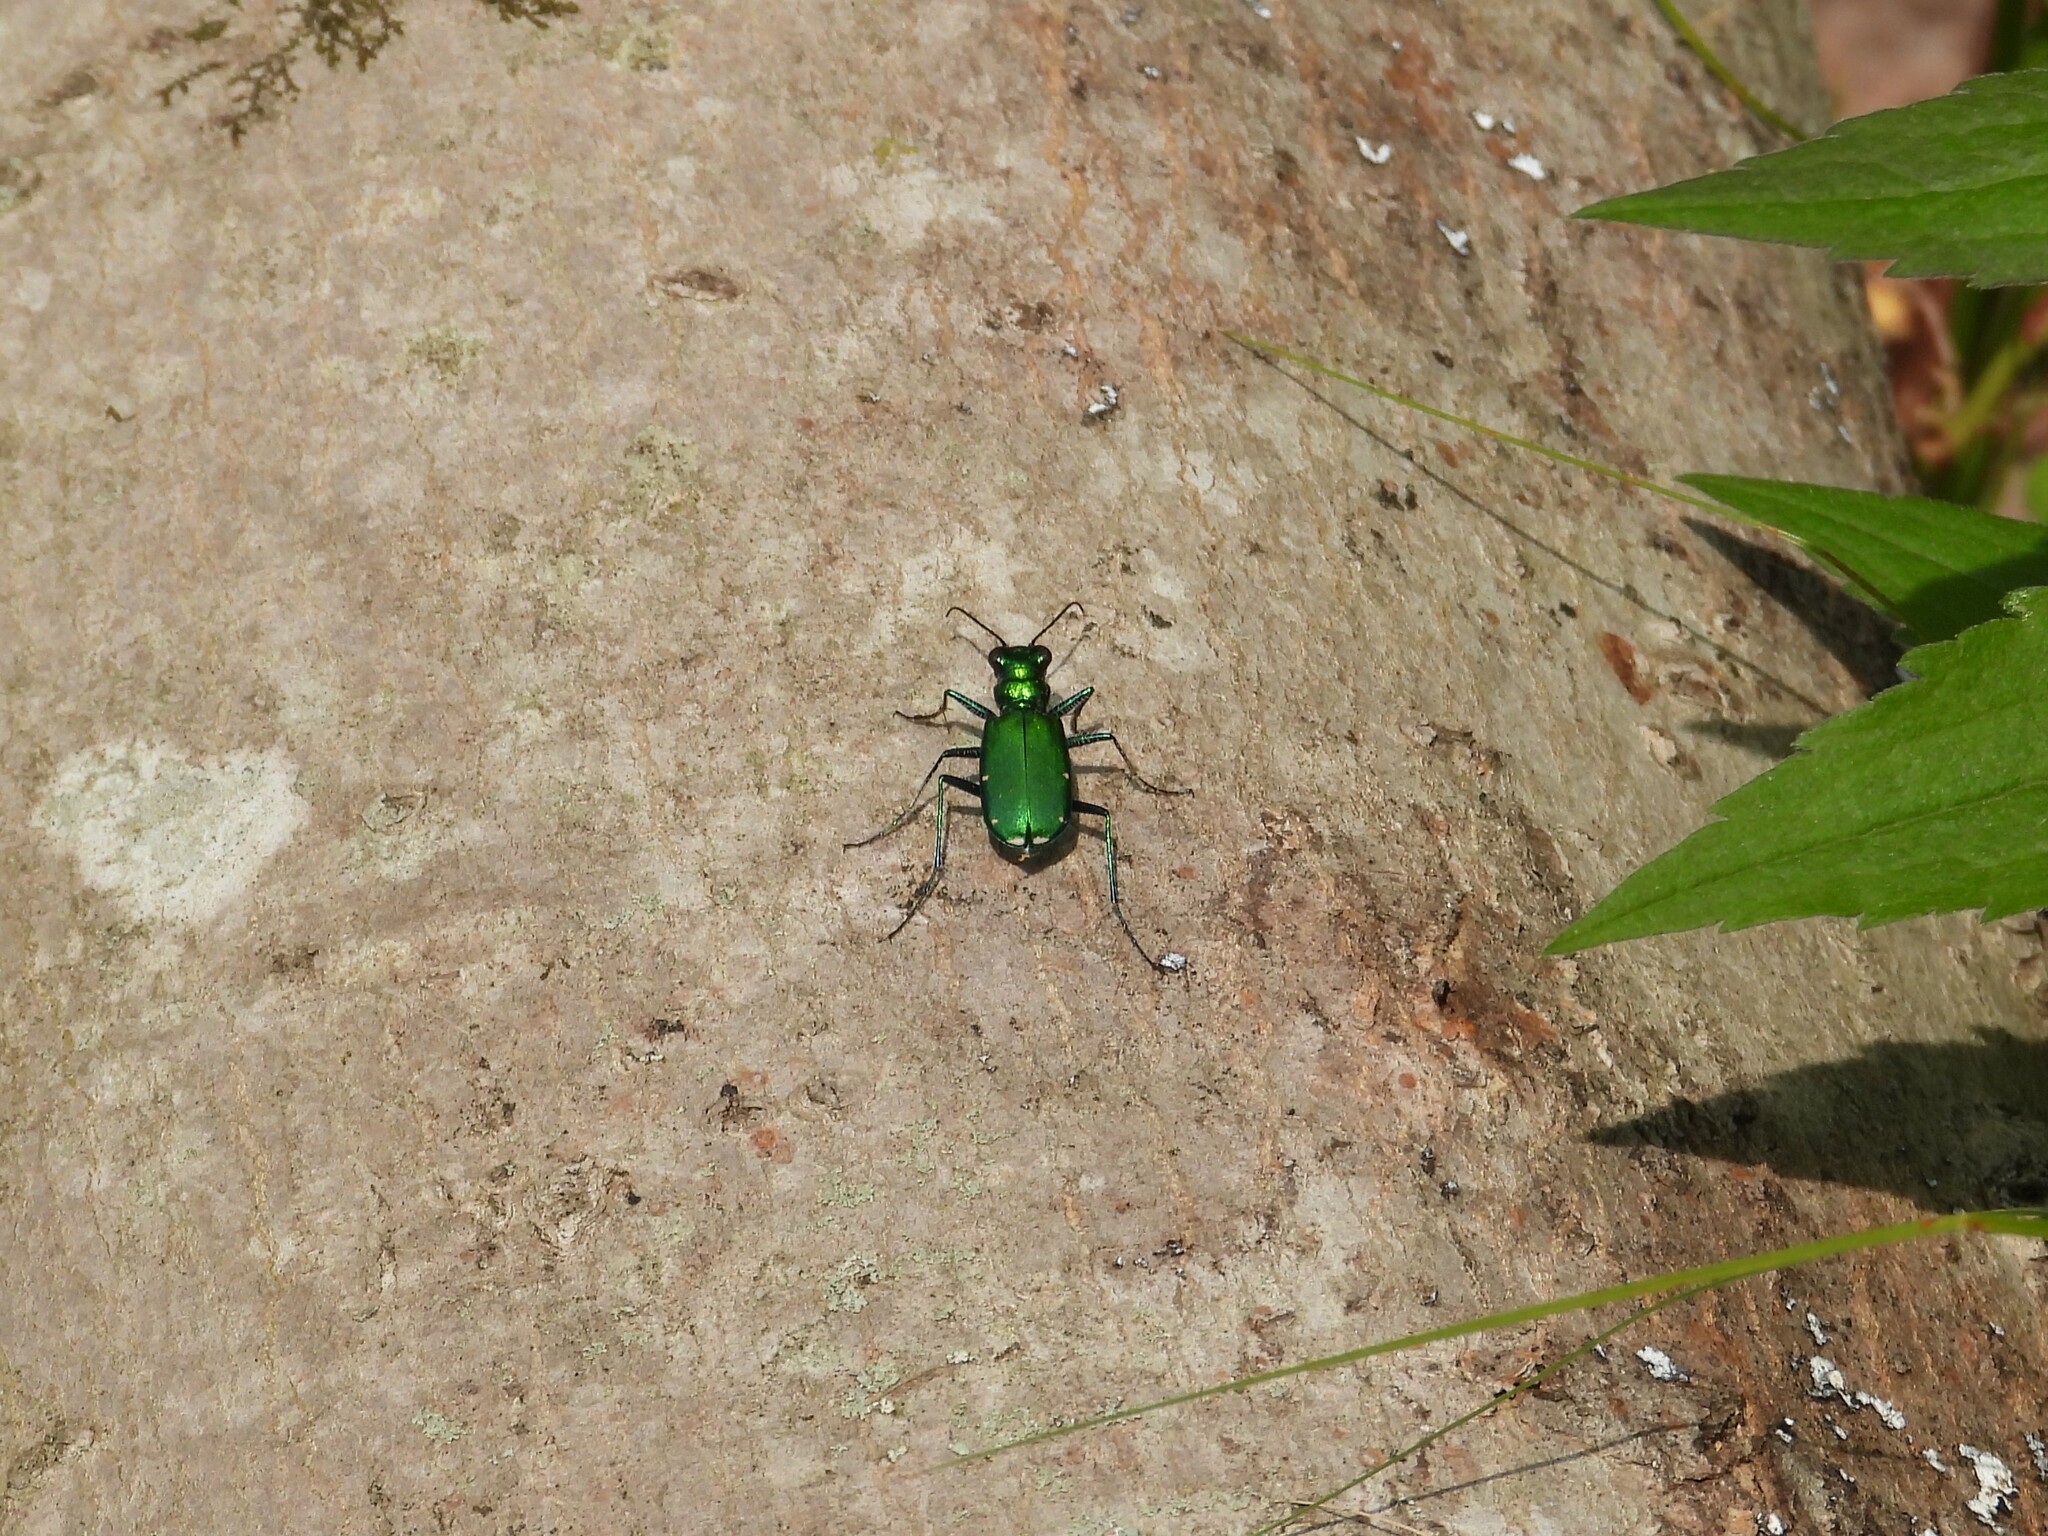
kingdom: Animalia
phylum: Arthropoda
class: Insecta
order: Coleoptera
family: Carabidae
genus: Cicindela
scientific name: Cicindela sexguttata
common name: Six-spotted tiger beetle
